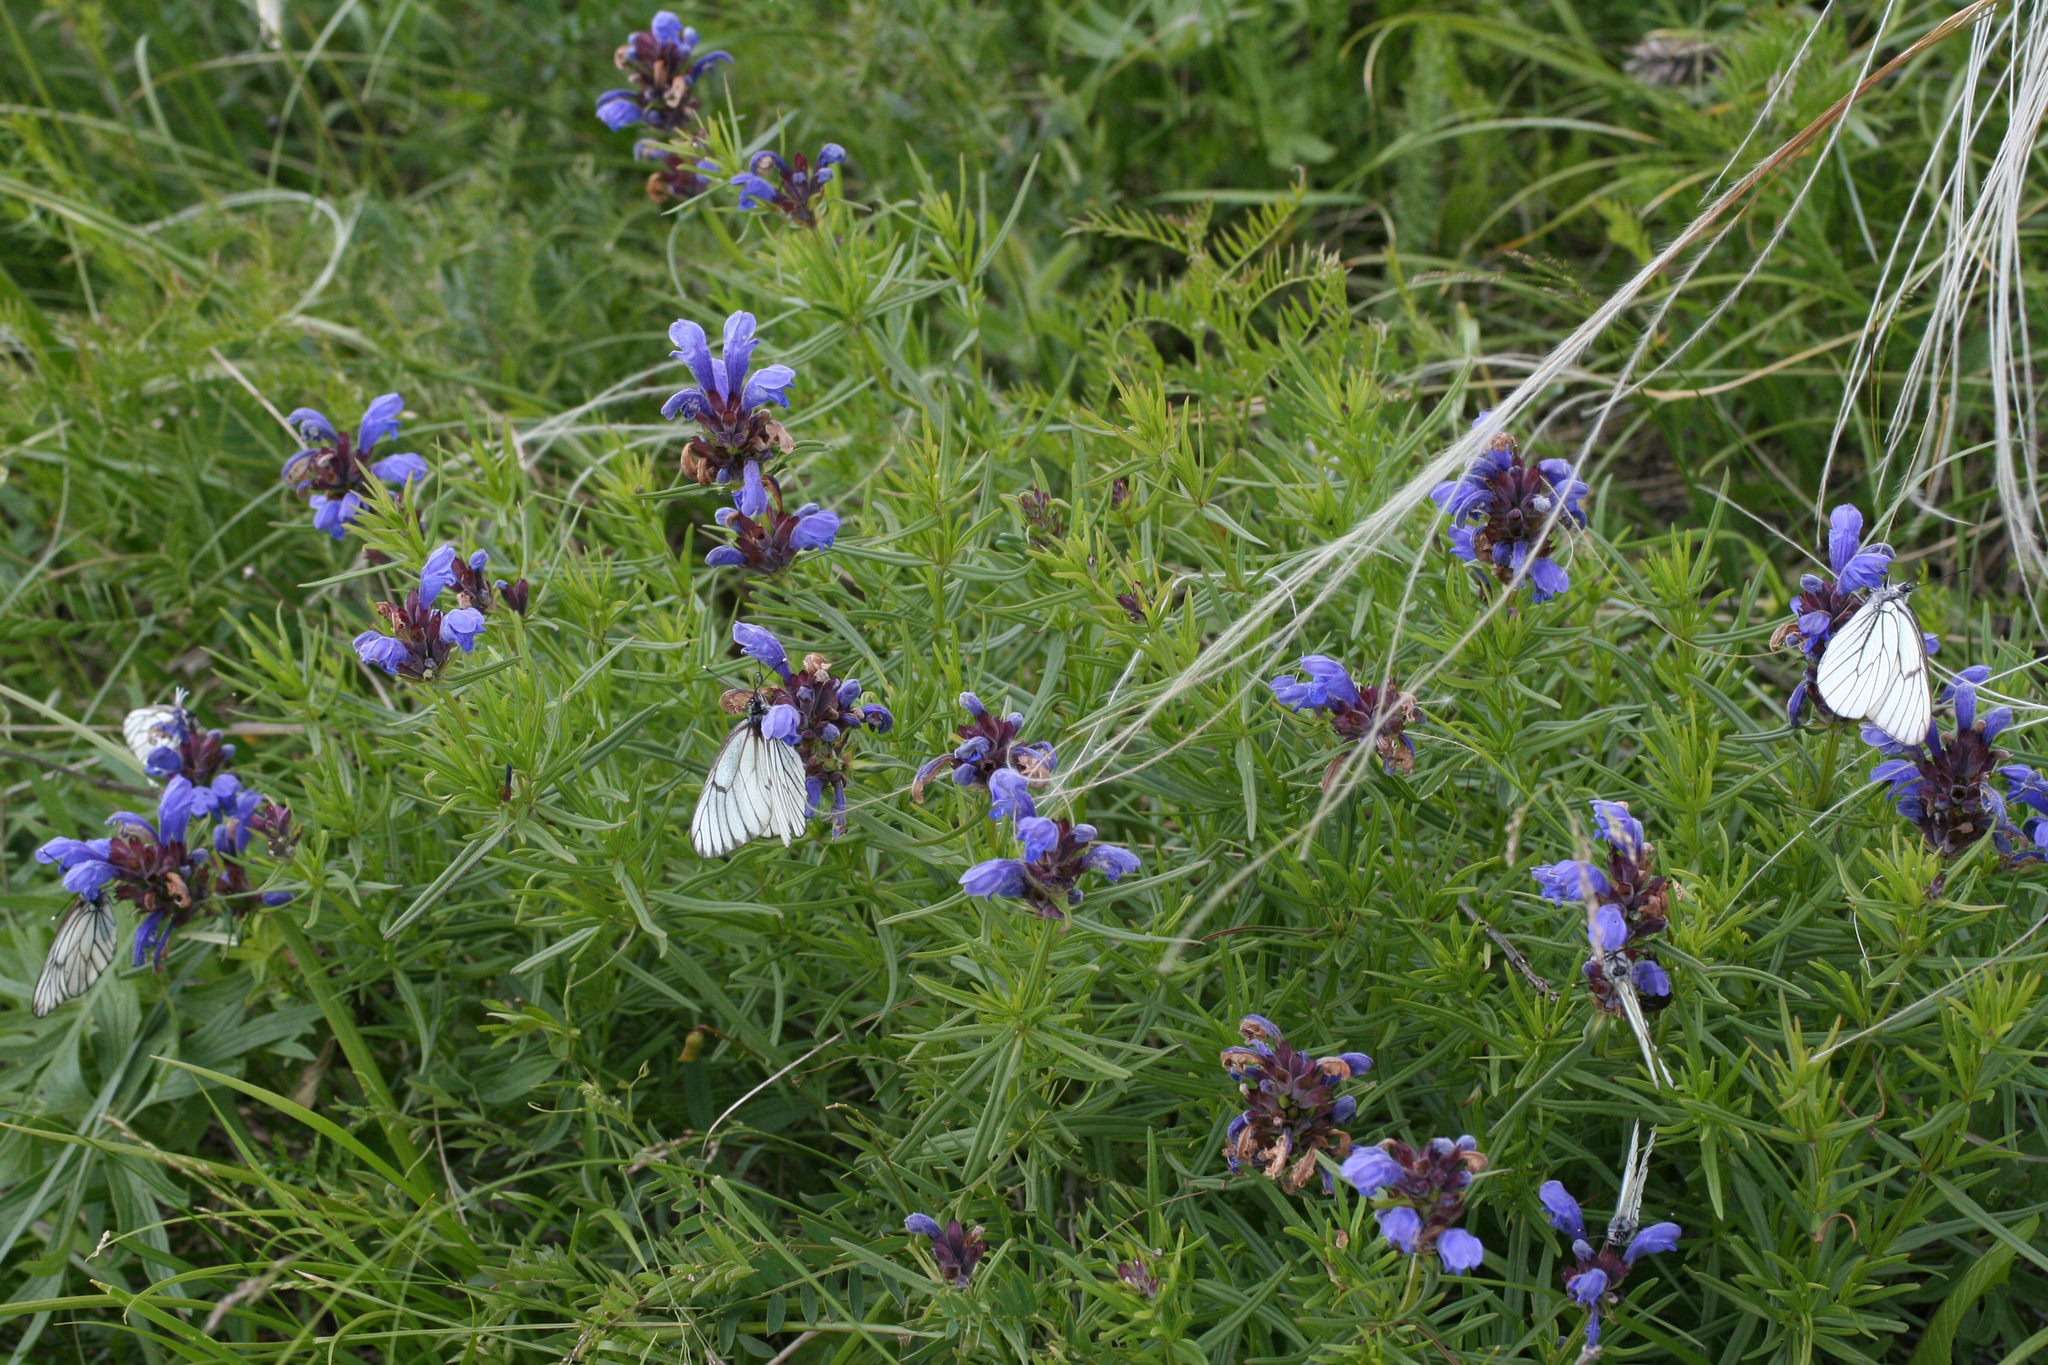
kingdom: Plantae
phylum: Tracheophyta
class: Magnoliopsida
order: Lamiales
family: Lamiaceae
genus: Dracocephalum
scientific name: Dracocephalum ruyschiana
